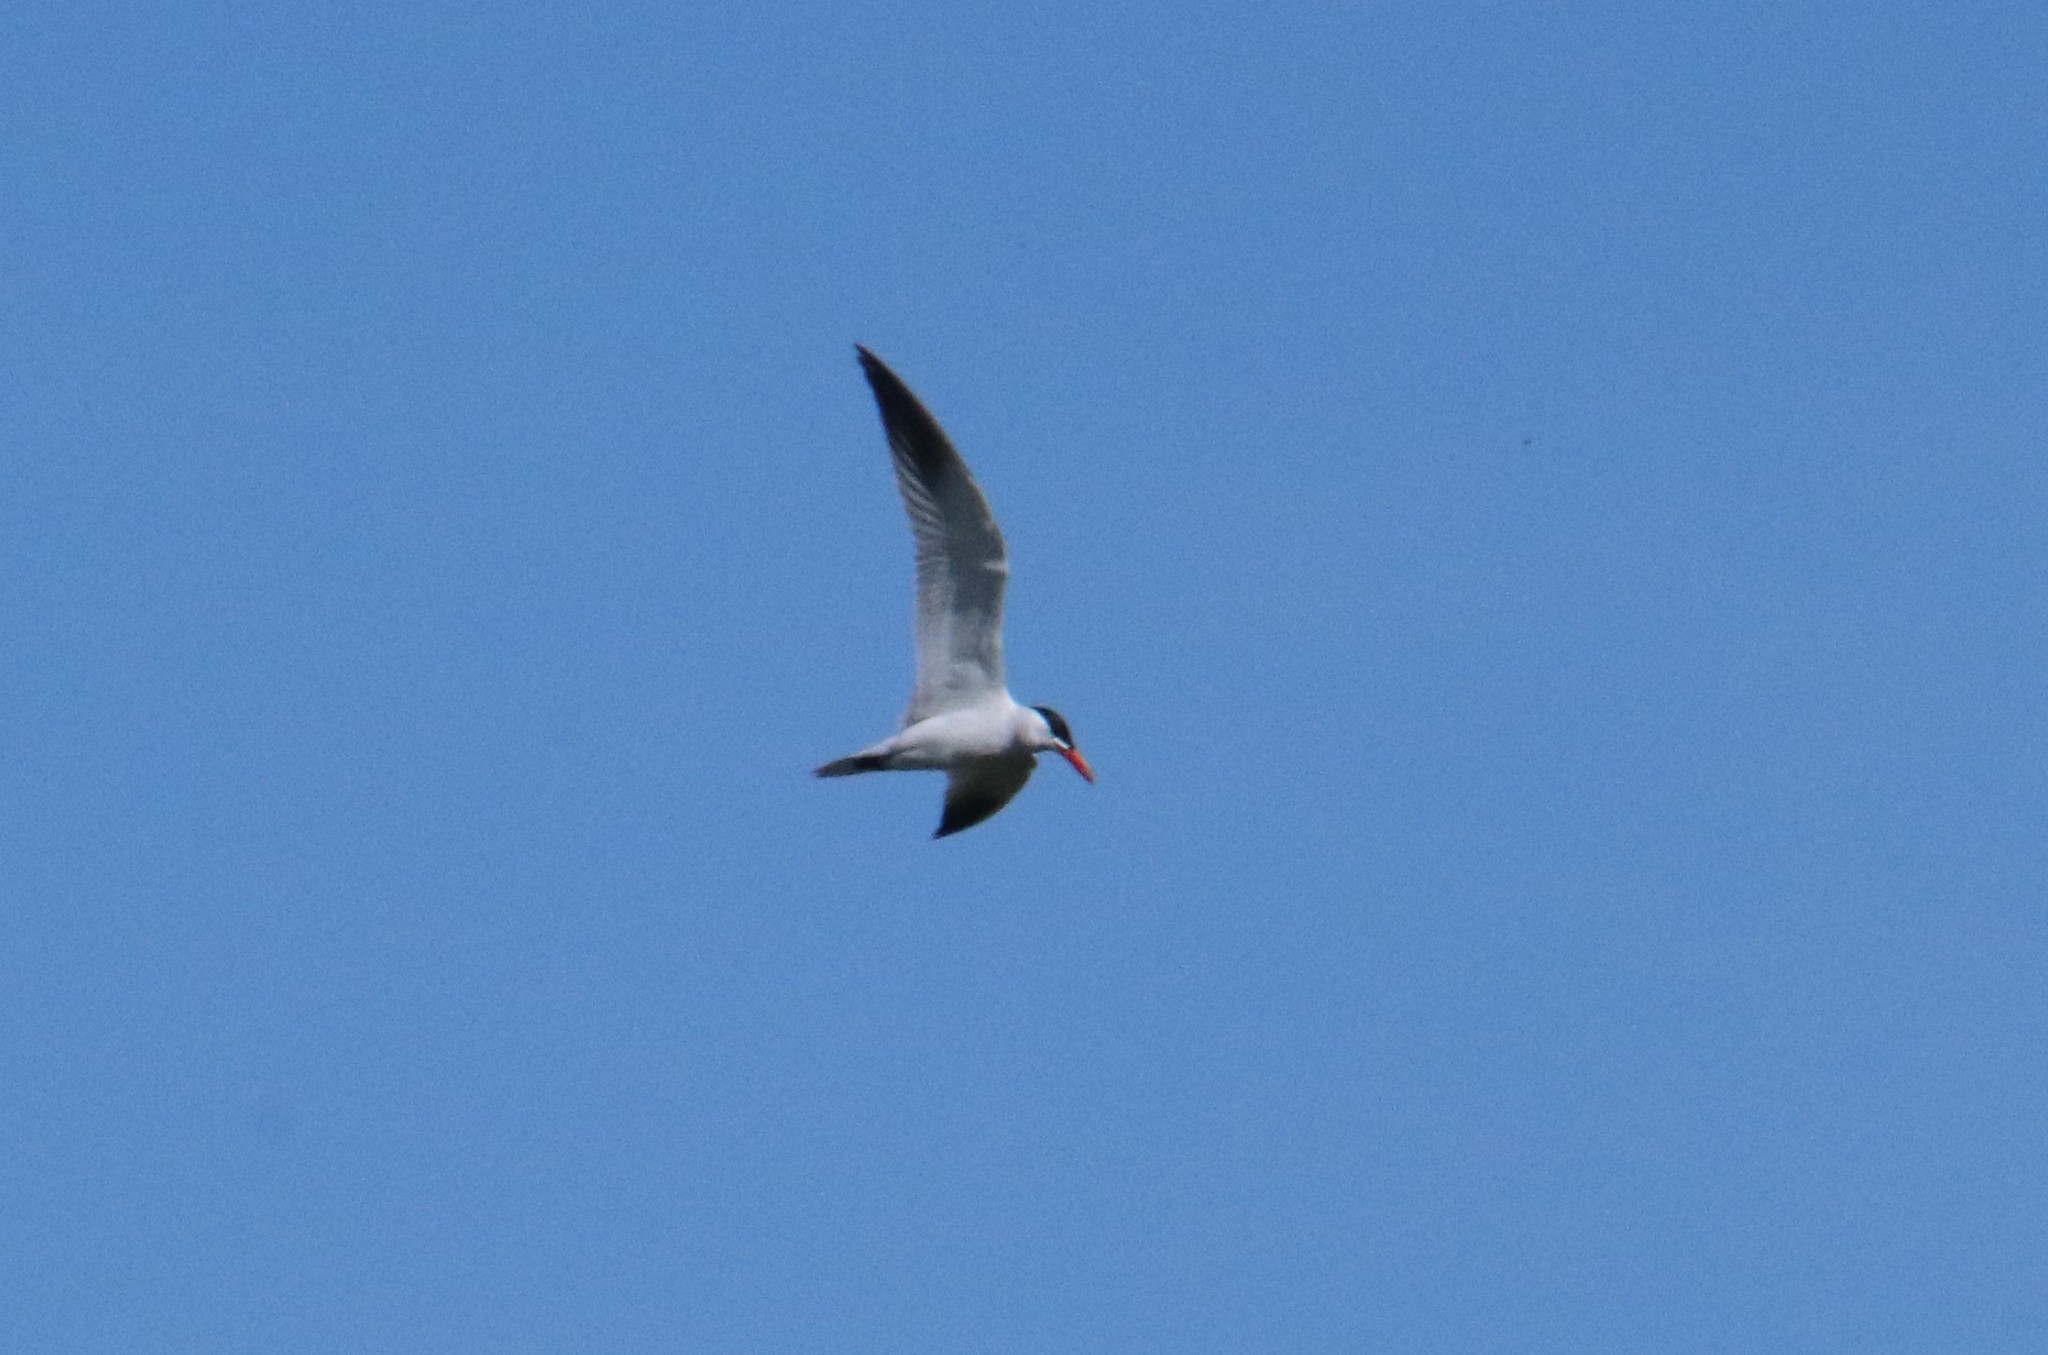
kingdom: Animalia
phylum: Chordata
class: Aves
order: Charadriiformes
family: Laridae
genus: Hydroprogne
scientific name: Hydroprogne caspia
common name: Caspian tern
